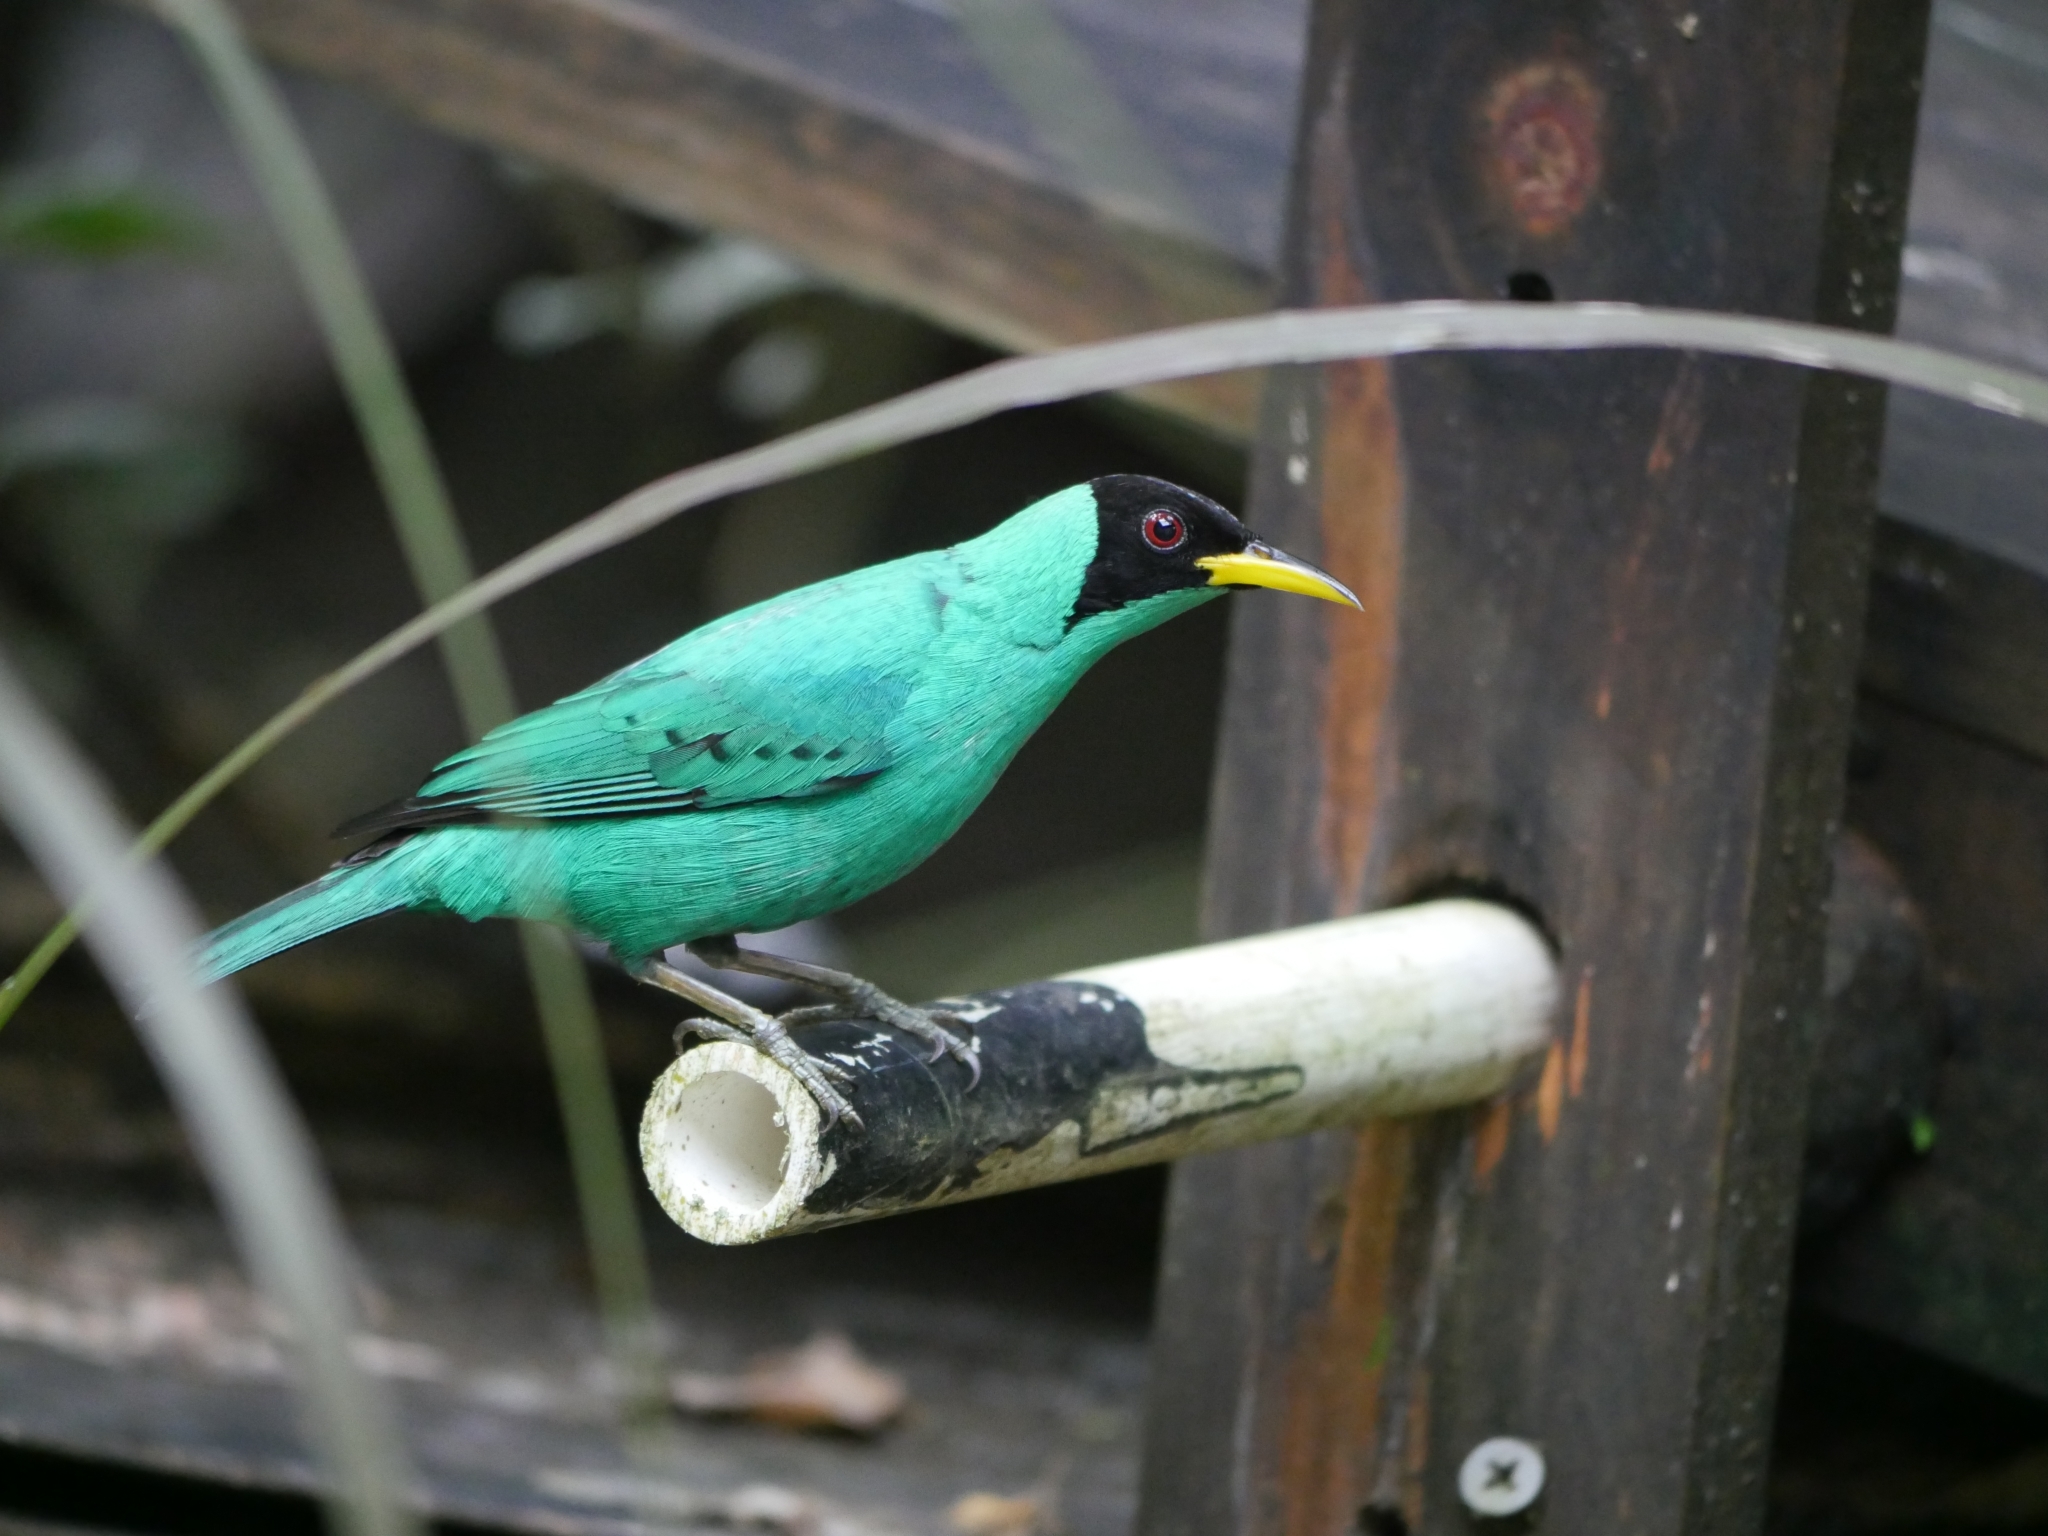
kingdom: Animalia
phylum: Chordata
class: Aves
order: Passeriformes
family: Thraupidae
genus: Chlorophanes
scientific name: Chlorophanes spiza
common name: Green honeycreeper
